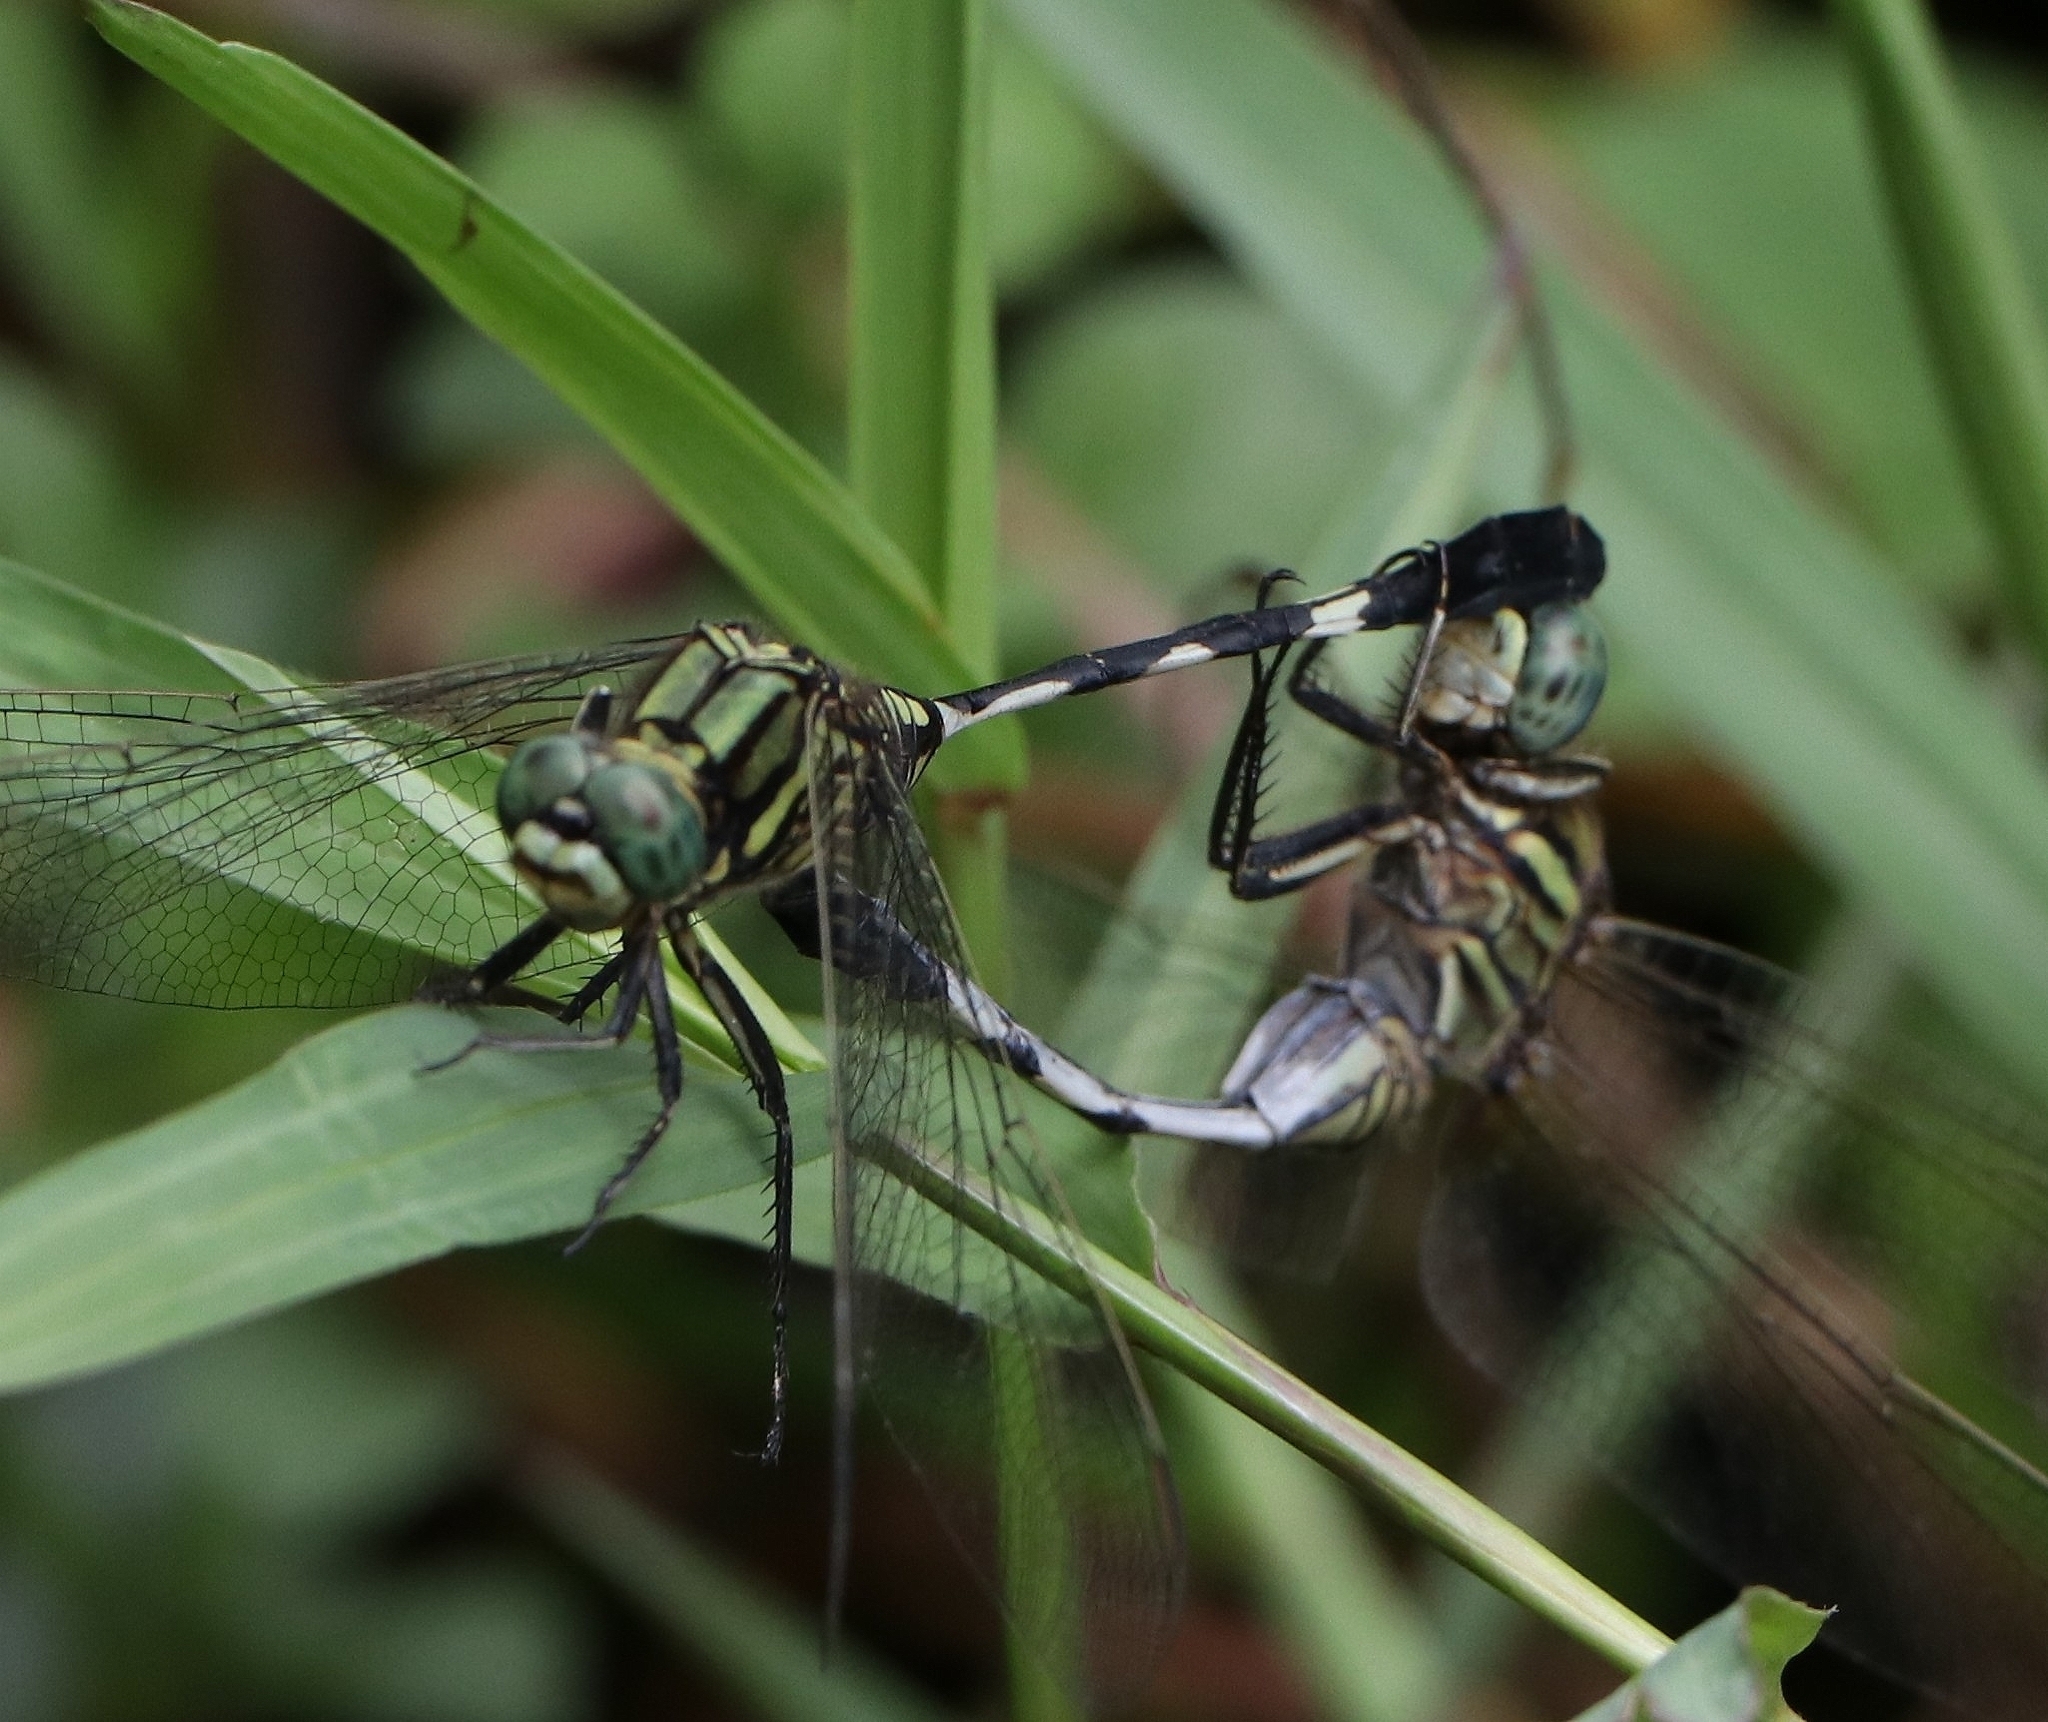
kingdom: Animalia
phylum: Arthropoda
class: Insecta
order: Odonata
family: Libellulidae
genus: Orthetrum
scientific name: Orthetrum sabina
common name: Slender skimmer
